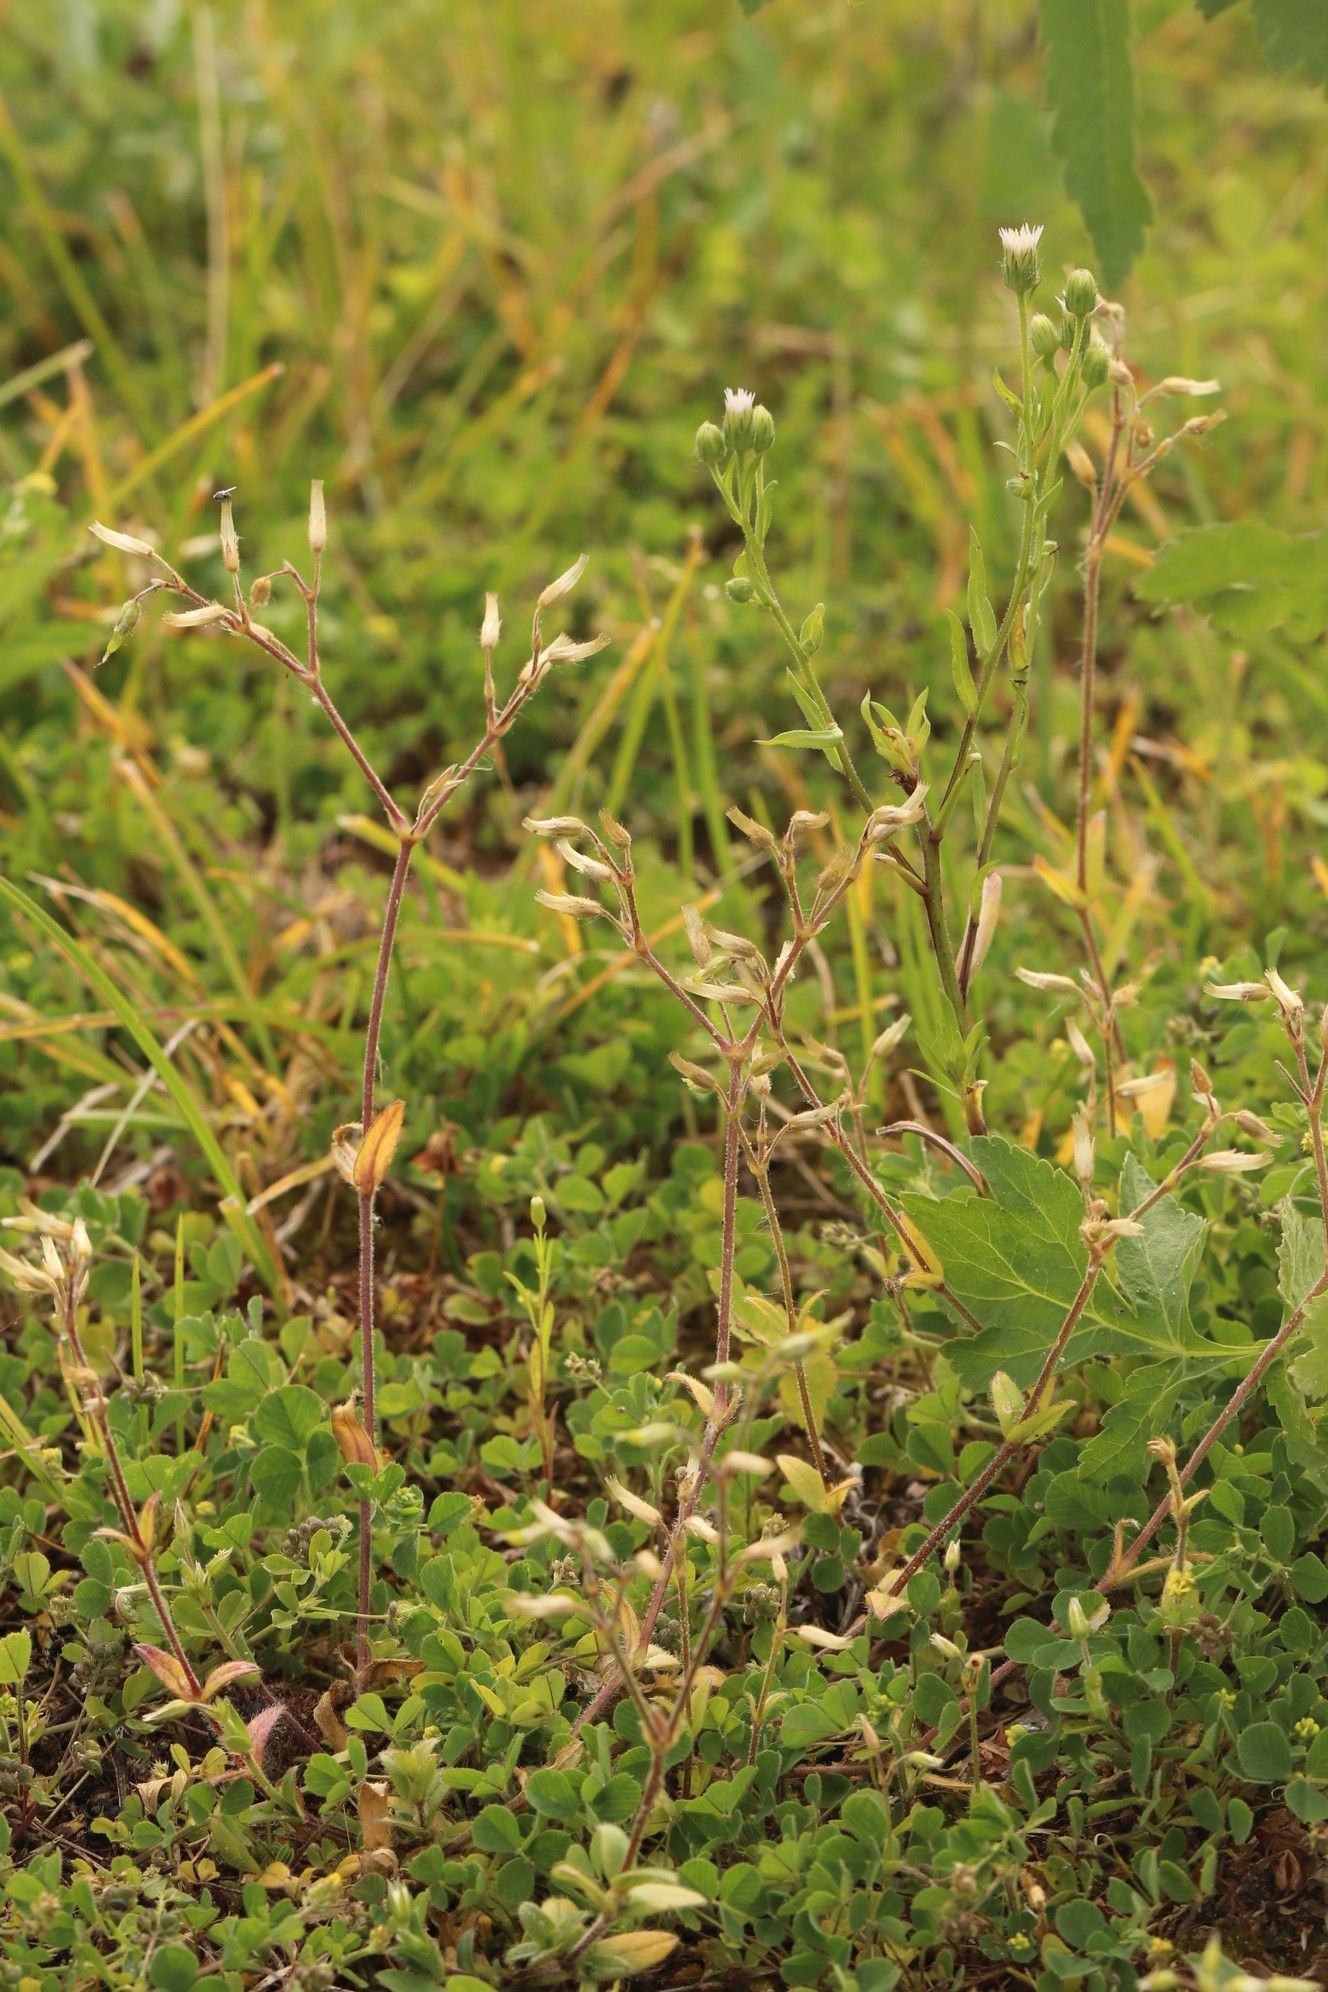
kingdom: Plantae
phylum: Tracheophyta
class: Magnoliopsida
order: Caryophyllales
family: Caryophyllaceae
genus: Cerastium
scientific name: Cerastium holosteoides
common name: Big chickweed
